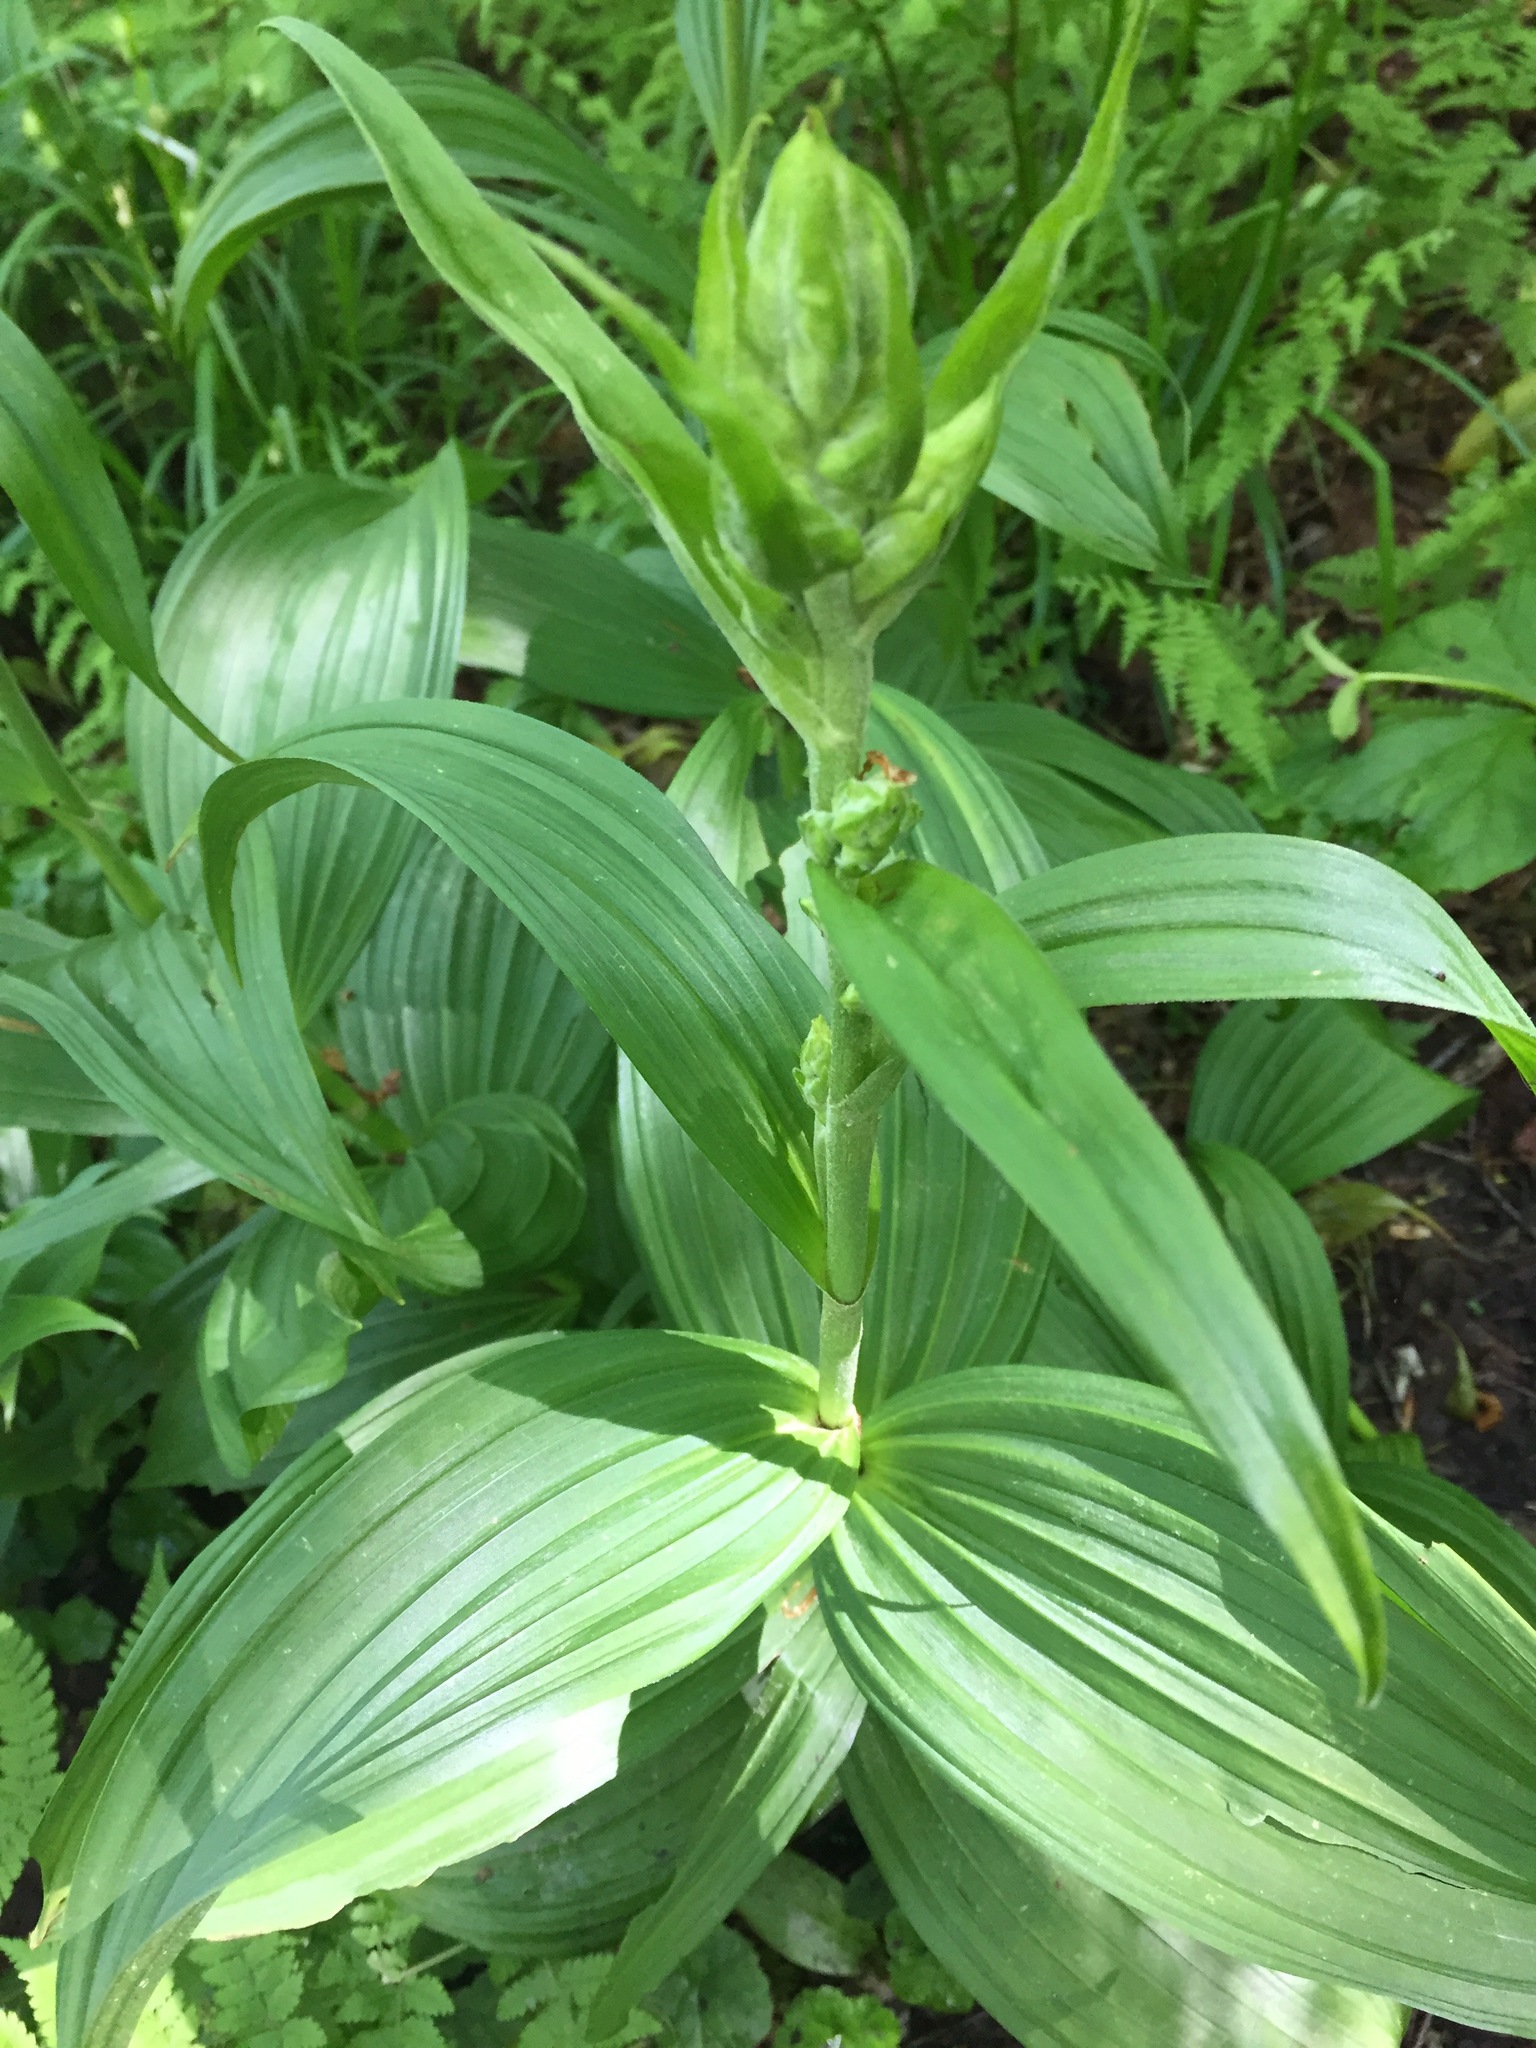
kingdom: Plantae
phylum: Tracheophyta
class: Liliopsida
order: Liliales
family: Melanthiaceae
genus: Veratrum
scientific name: Veratrum viride
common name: American false hellebore
